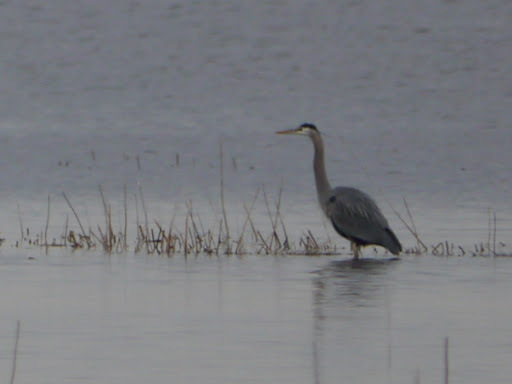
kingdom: Animalia
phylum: Chordata
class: Aves
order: Pelecaniformes
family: Ardeidae
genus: Ardea
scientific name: Ardea herodias
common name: Great blue heron
